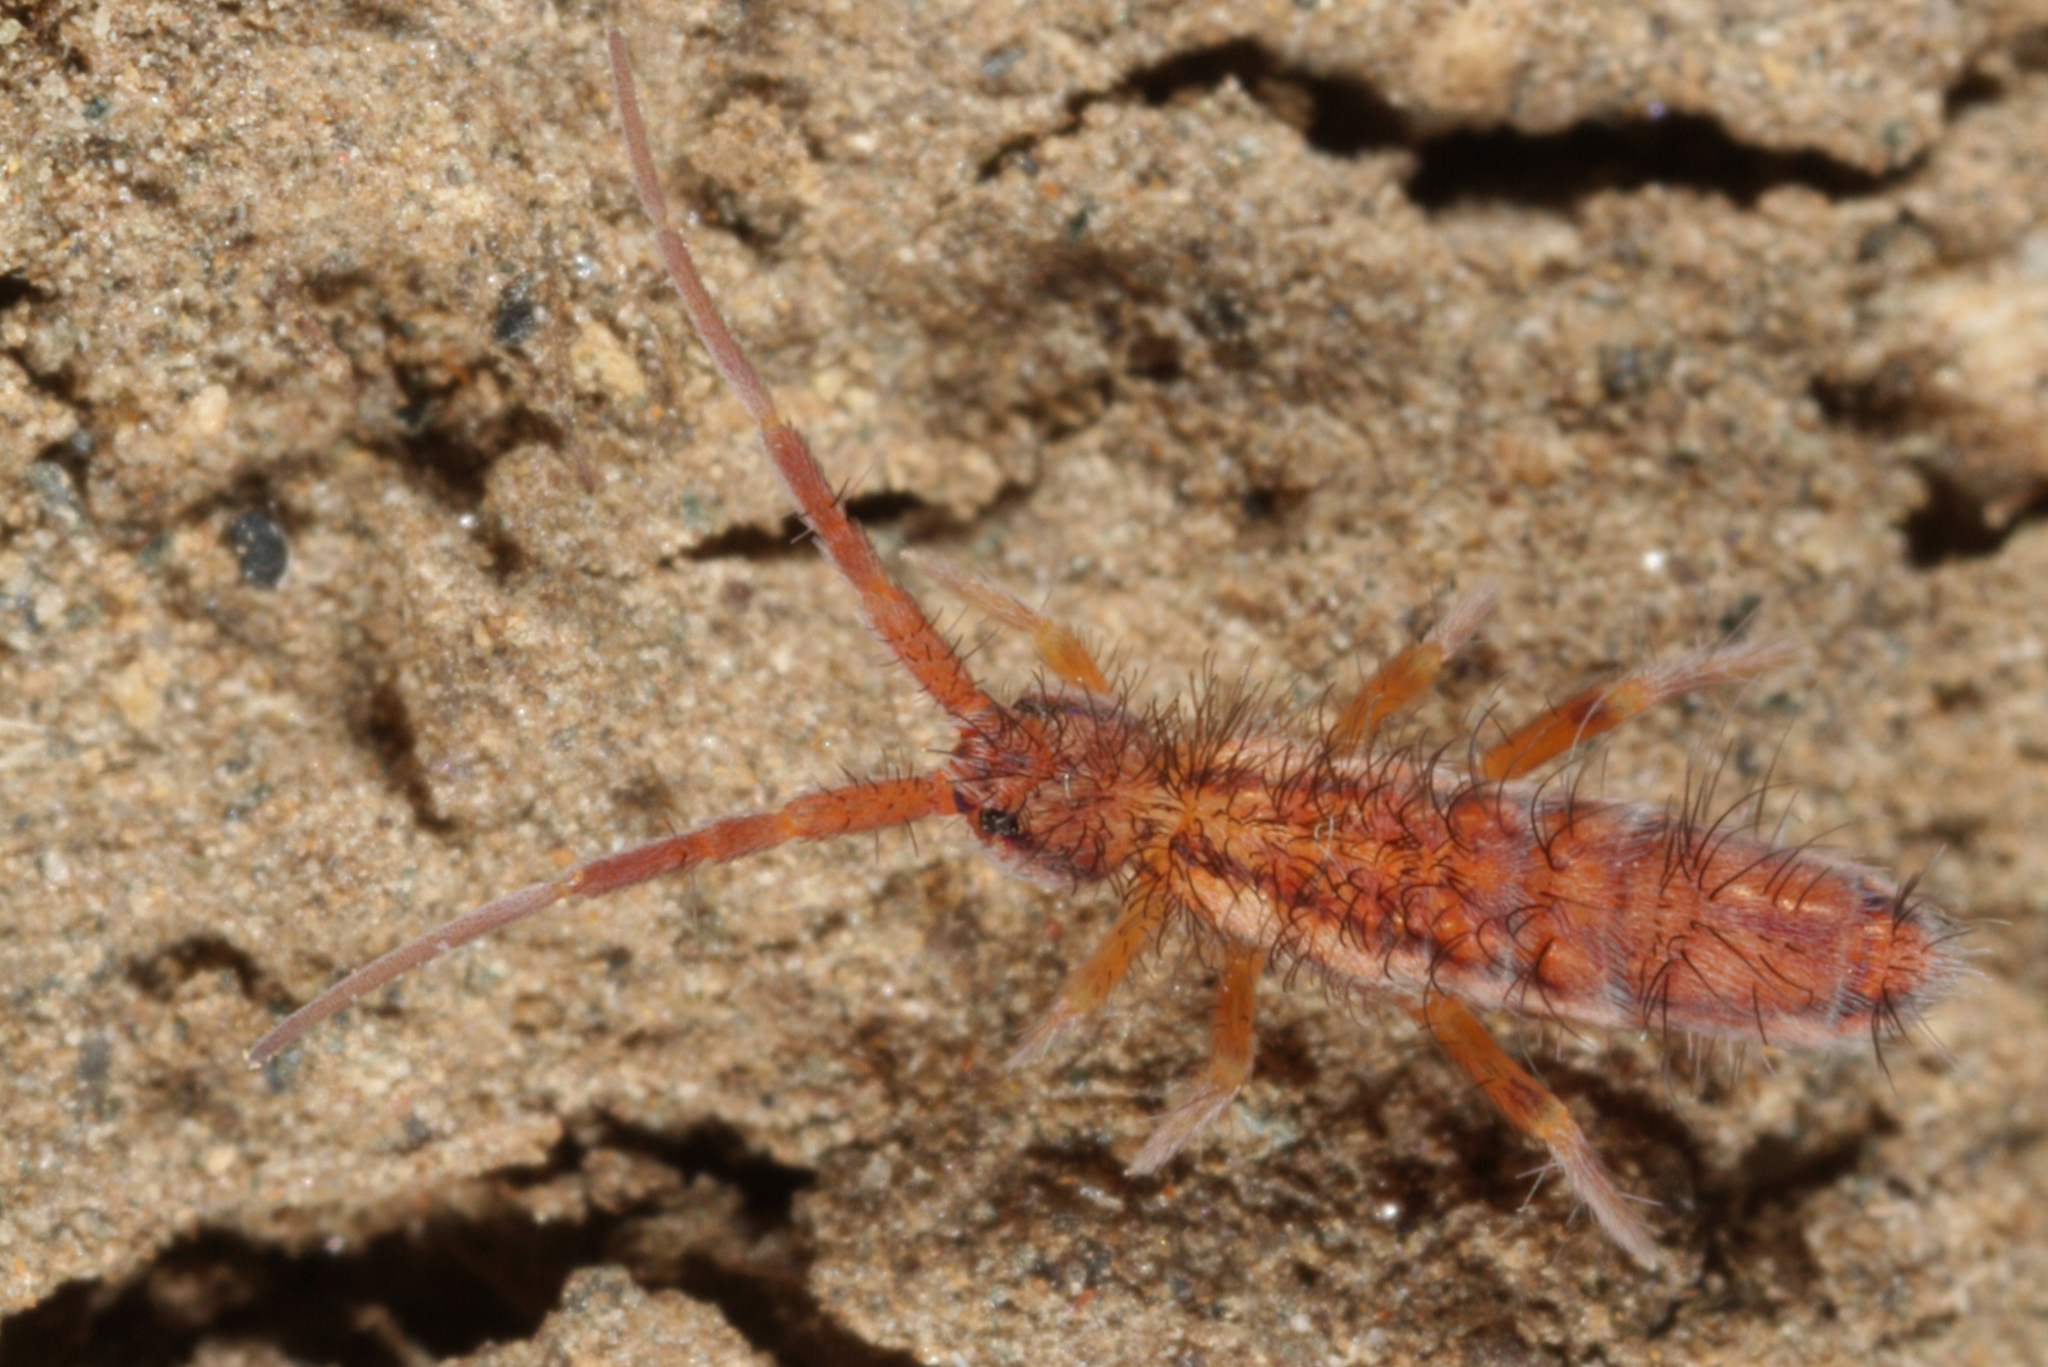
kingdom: Animalia
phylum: Arthropoda
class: Collembola
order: Entomobryomorpha
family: Entomobryidae
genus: Entomobrya
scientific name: Entomobrya nivalis
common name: Cosmopolitan springtail
